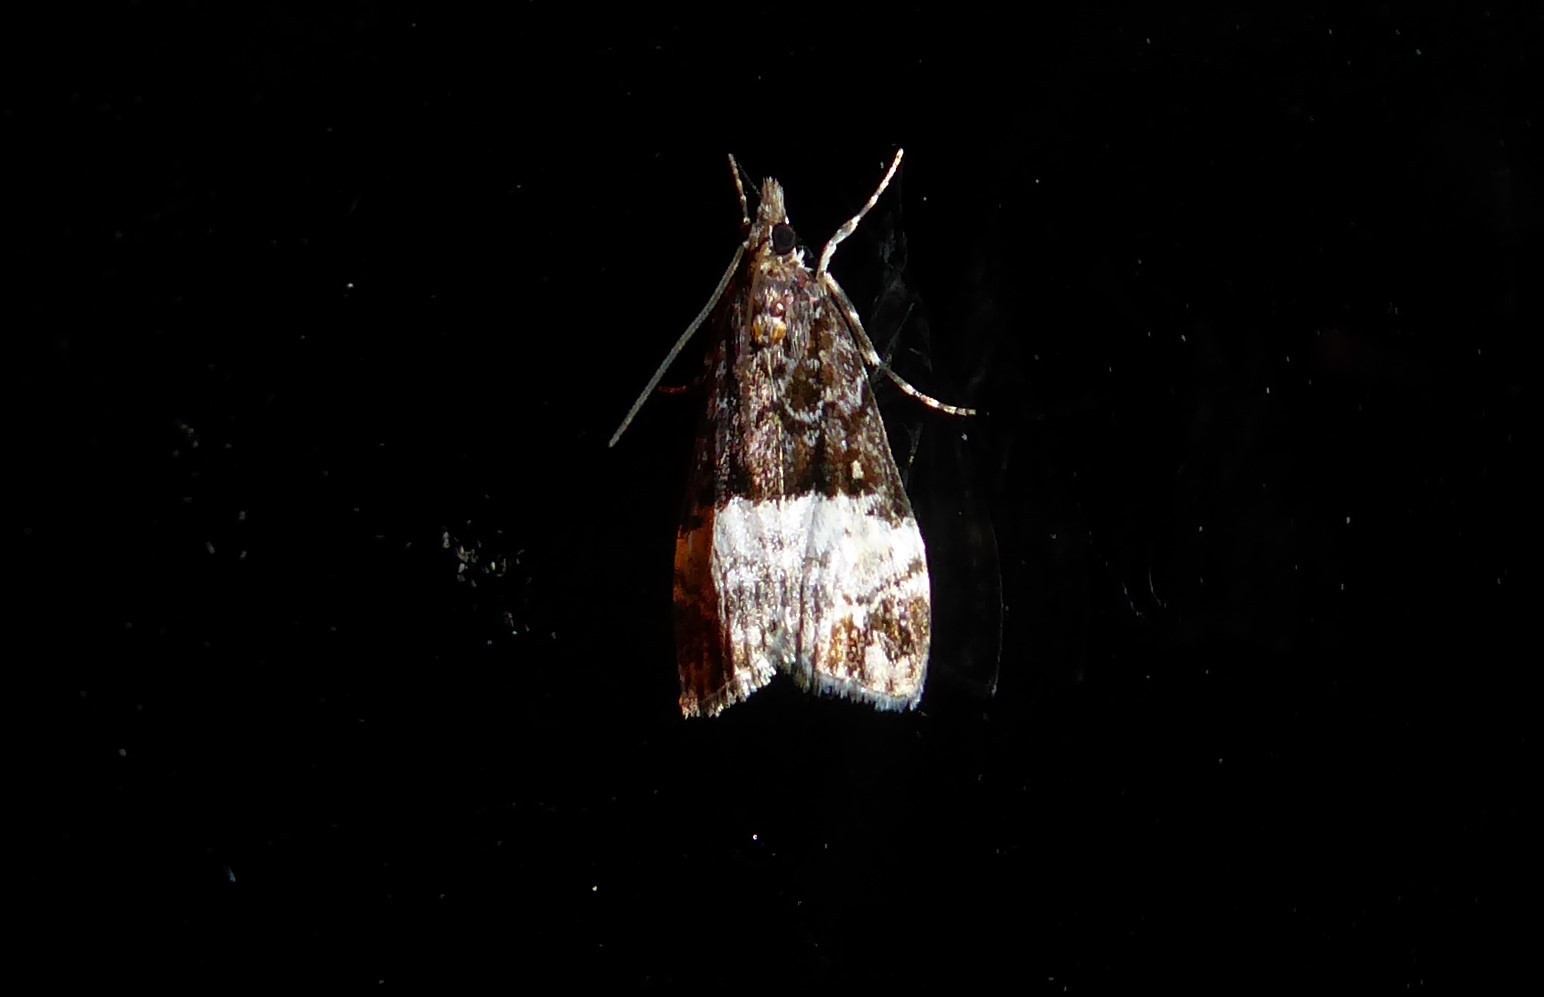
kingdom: Animalia
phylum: Arthropoda
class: Insecta
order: Lepidoptera
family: Crambidae
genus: Scoparia
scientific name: Scoparia minusculalis
